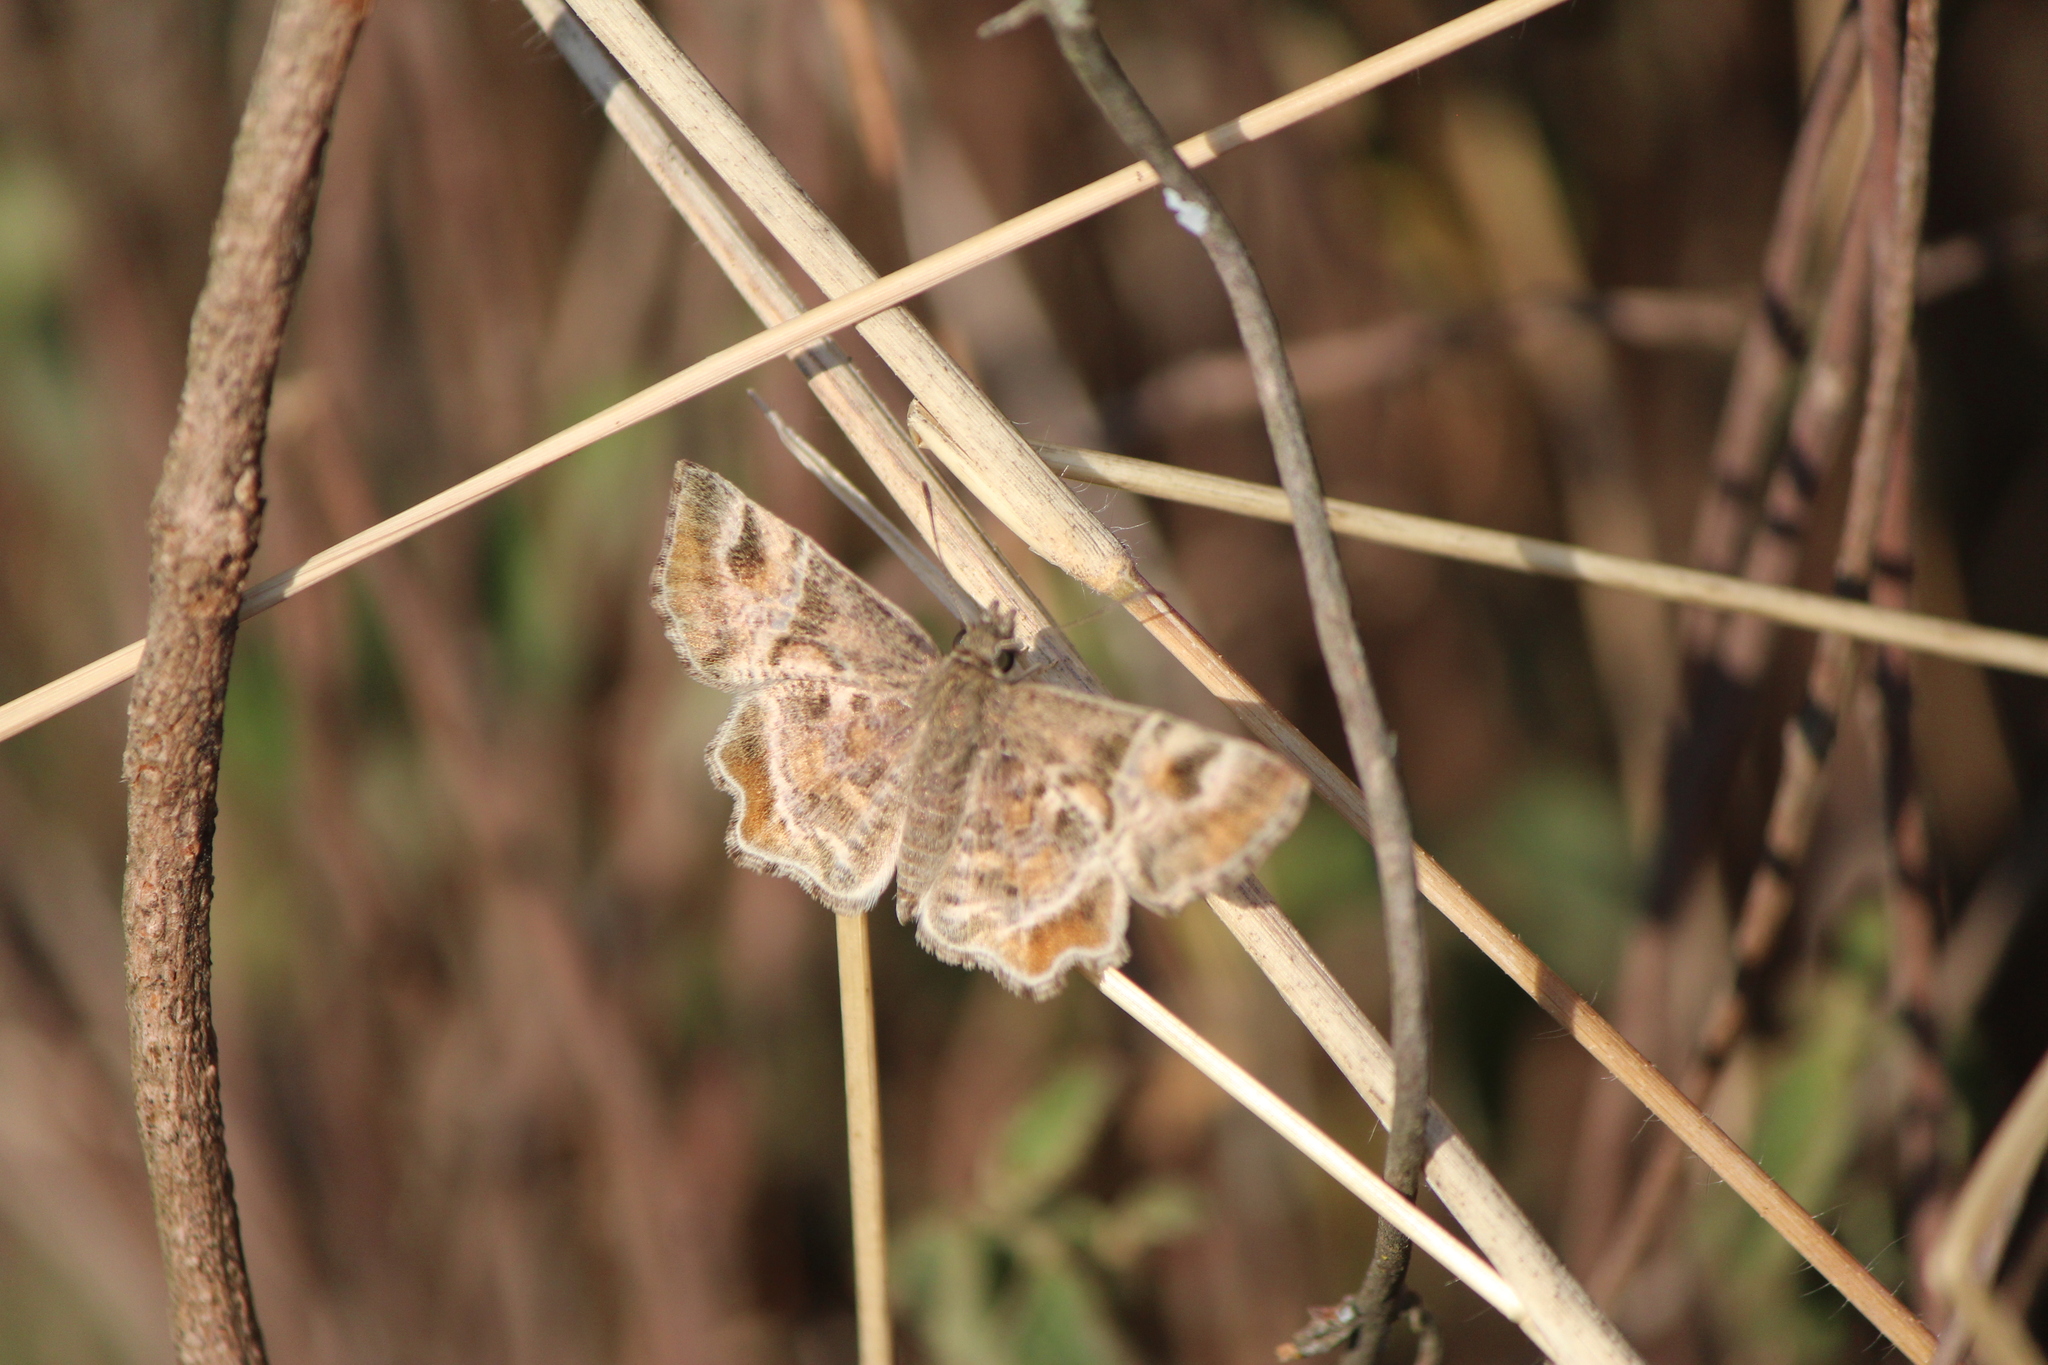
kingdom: Animalia
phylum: Arthropoda
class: Insecta
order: Lepidoptera
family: Hesperiidae
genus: Systasea
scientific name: Systasea pulverulenta
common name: Texas powdered skipper
